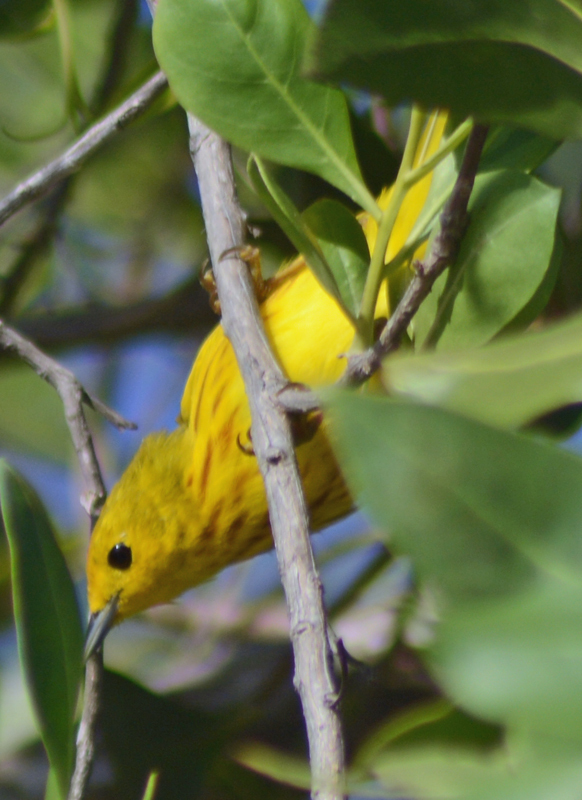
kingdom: Animalia
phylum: Chordata
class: Aves
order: Passeriformes
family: Parulidae
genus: Setophaga
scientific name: Setophaga petechia
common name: Yellow warbler
